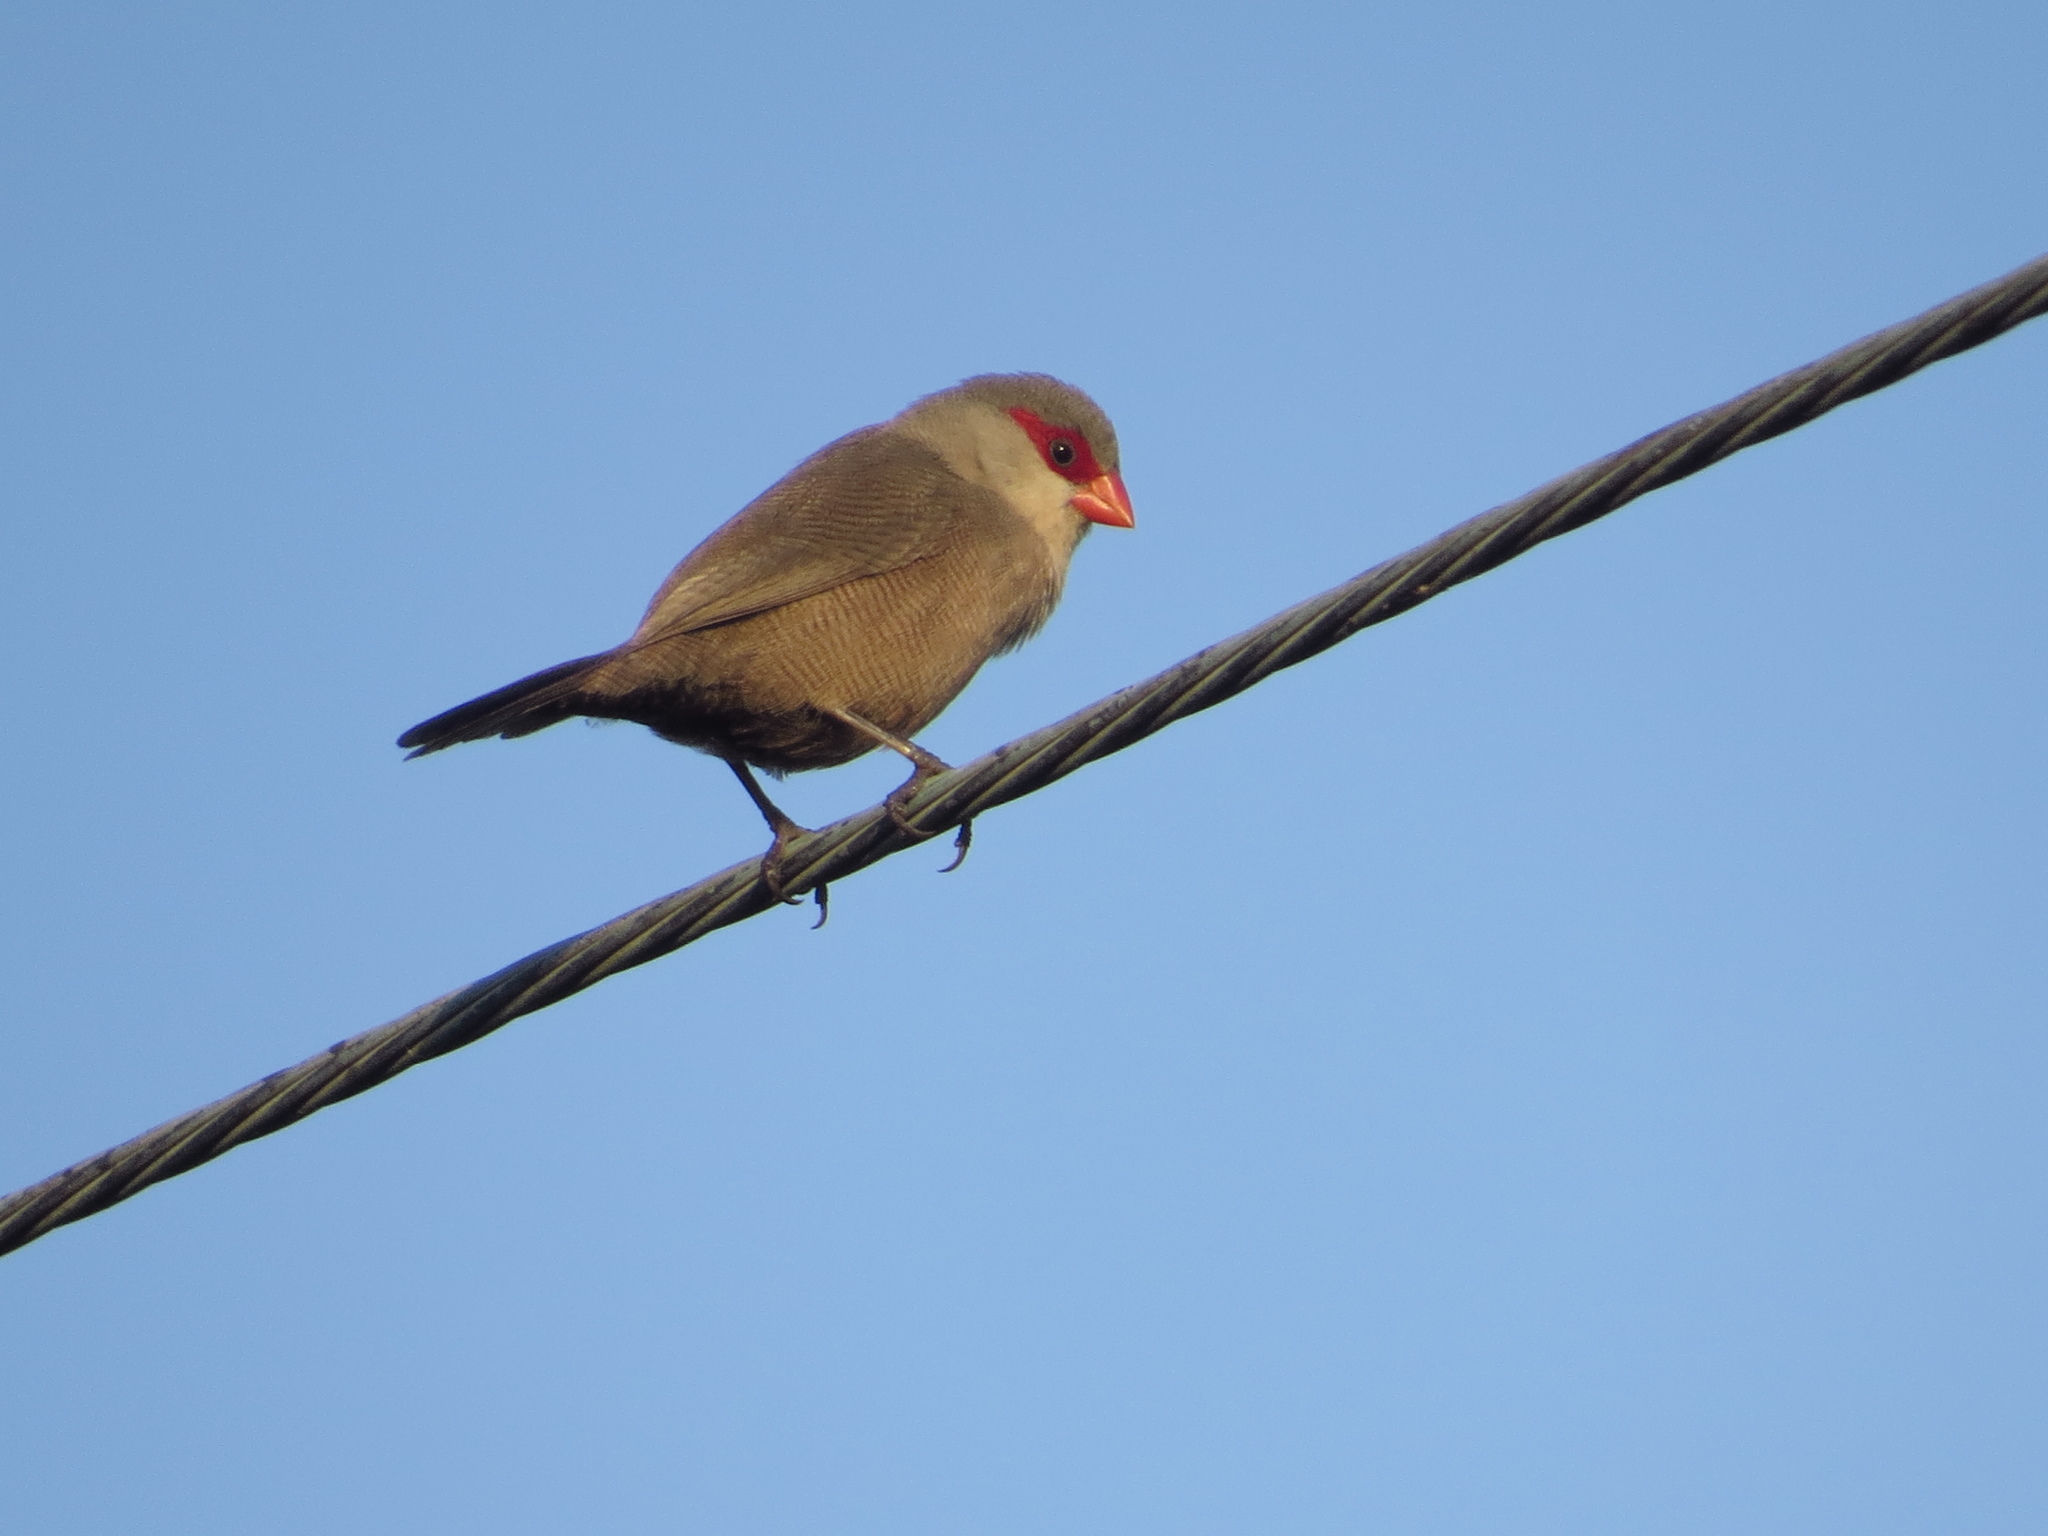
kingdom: Animalia
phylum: Chordata
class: Aves
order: Passeriformes
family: Estrildidae
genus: Estrilda
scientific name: Estrilda astrild
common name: Common waxbill
